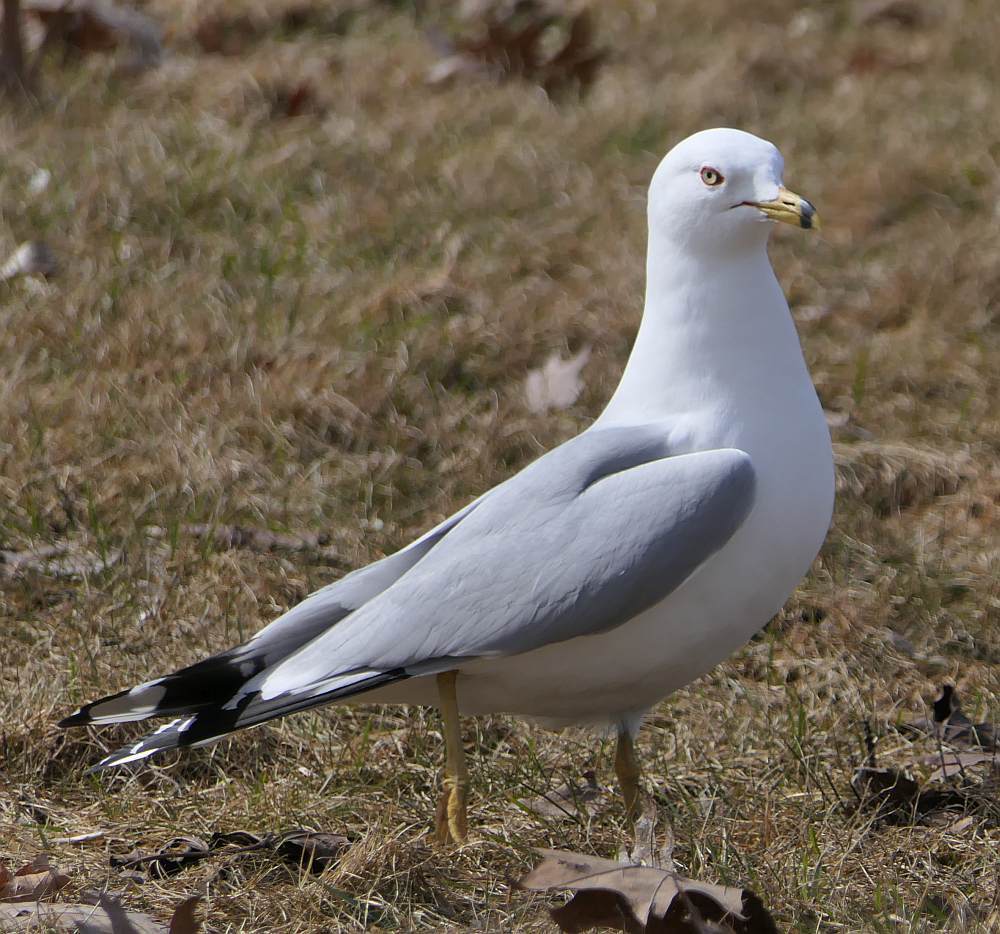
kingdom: Animalia
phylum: Chordata
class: Aves
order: Charadriiformes
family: Laridae
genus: Larus
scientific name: Larus delawarensis
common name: Ring-billed gull
